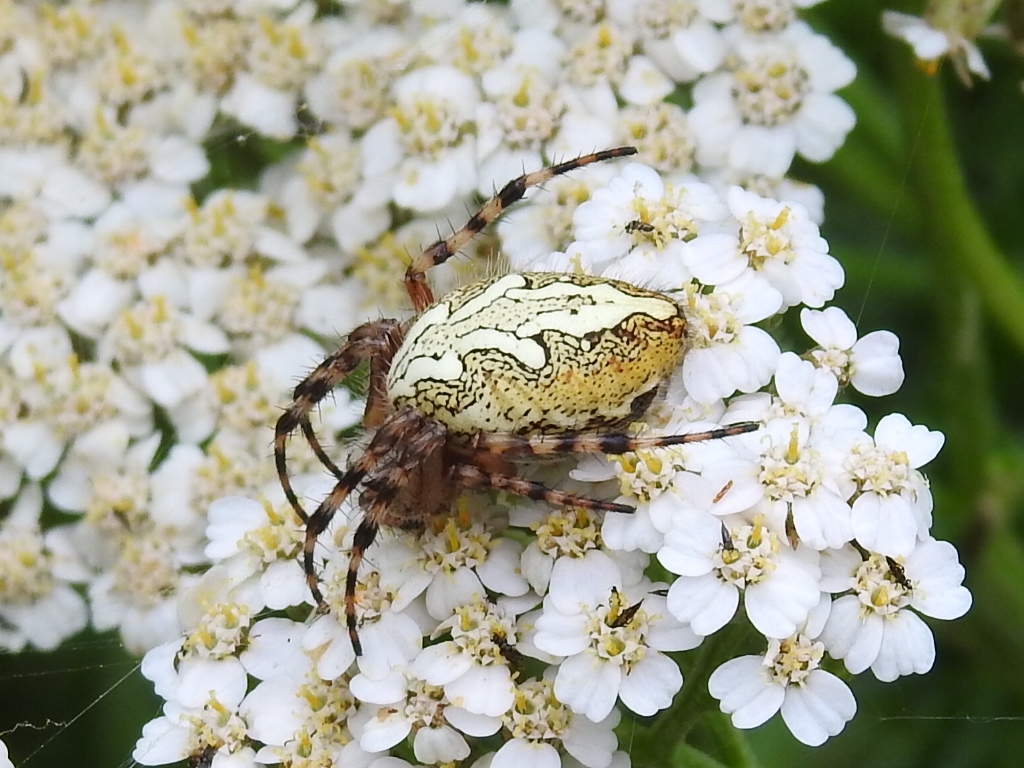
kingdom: Animalia
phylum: Arthropoda
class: Arachnida
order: Araneae
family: Araneidae
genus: Aculepeira
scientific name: Aculepeira ceropegia
